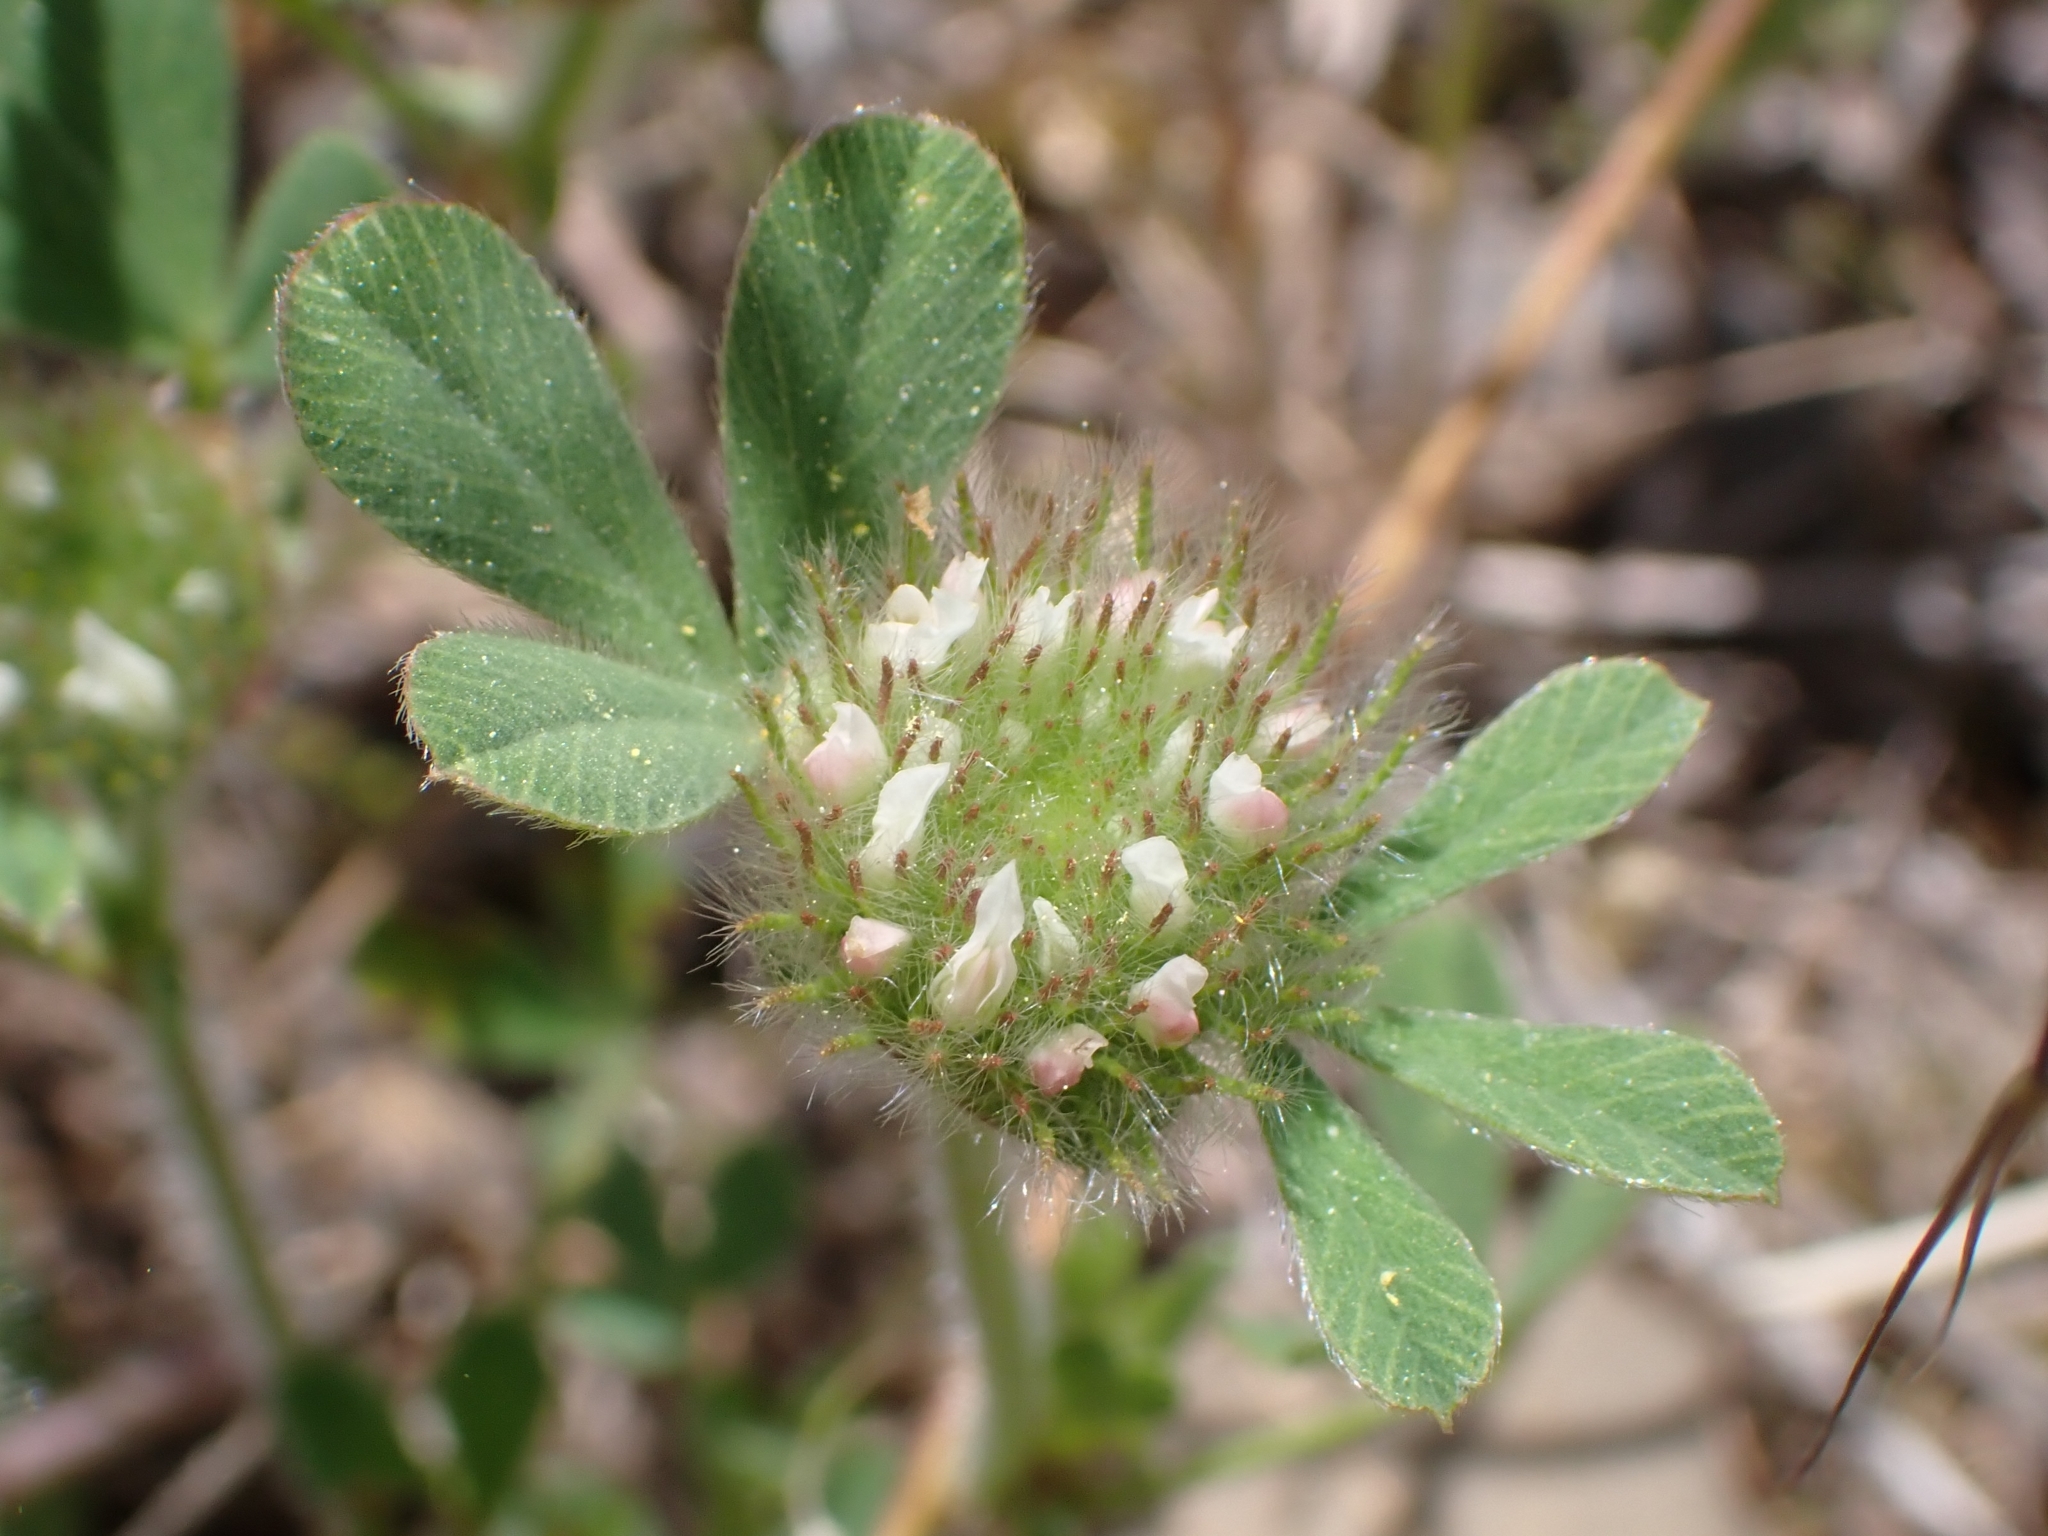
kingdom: Plantae
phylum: Tracheophyta
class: Magnoliopsida
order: Fabales
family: Fabaceae
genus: Trifolium
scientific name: Trifolium cherleri
